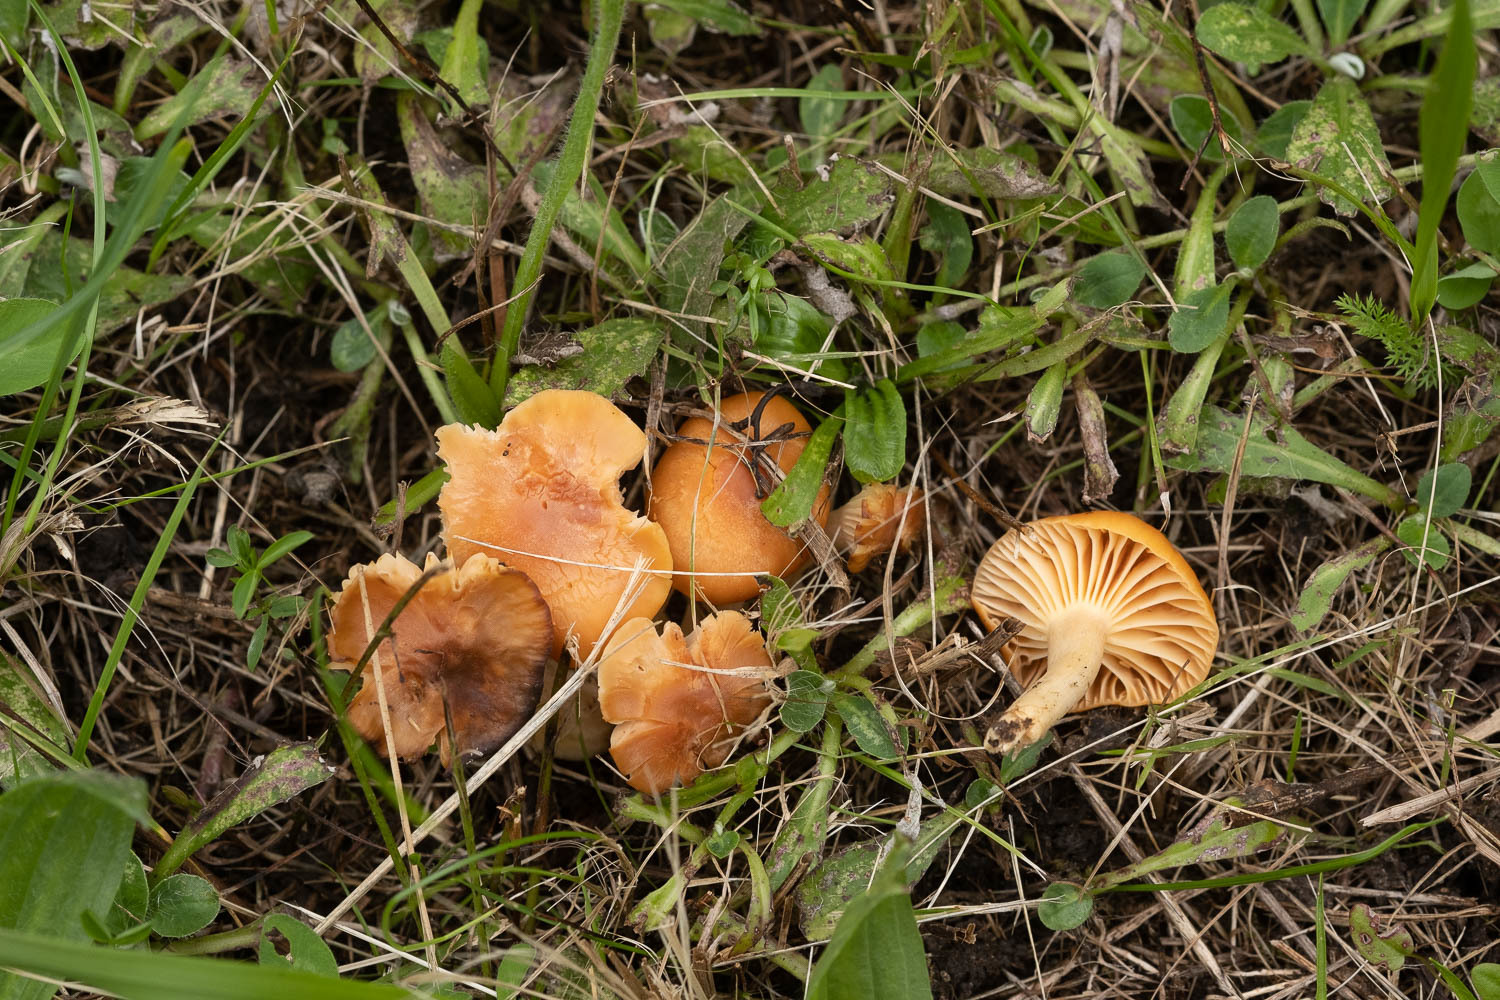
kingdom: Fungi
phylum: Basidiomycota
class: Agaricomycetes
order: Agaricales
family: Hygrophoraceae
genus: Cuphophyllus
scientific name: Cuphophyllus pratensis
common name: Meadow waxcap
